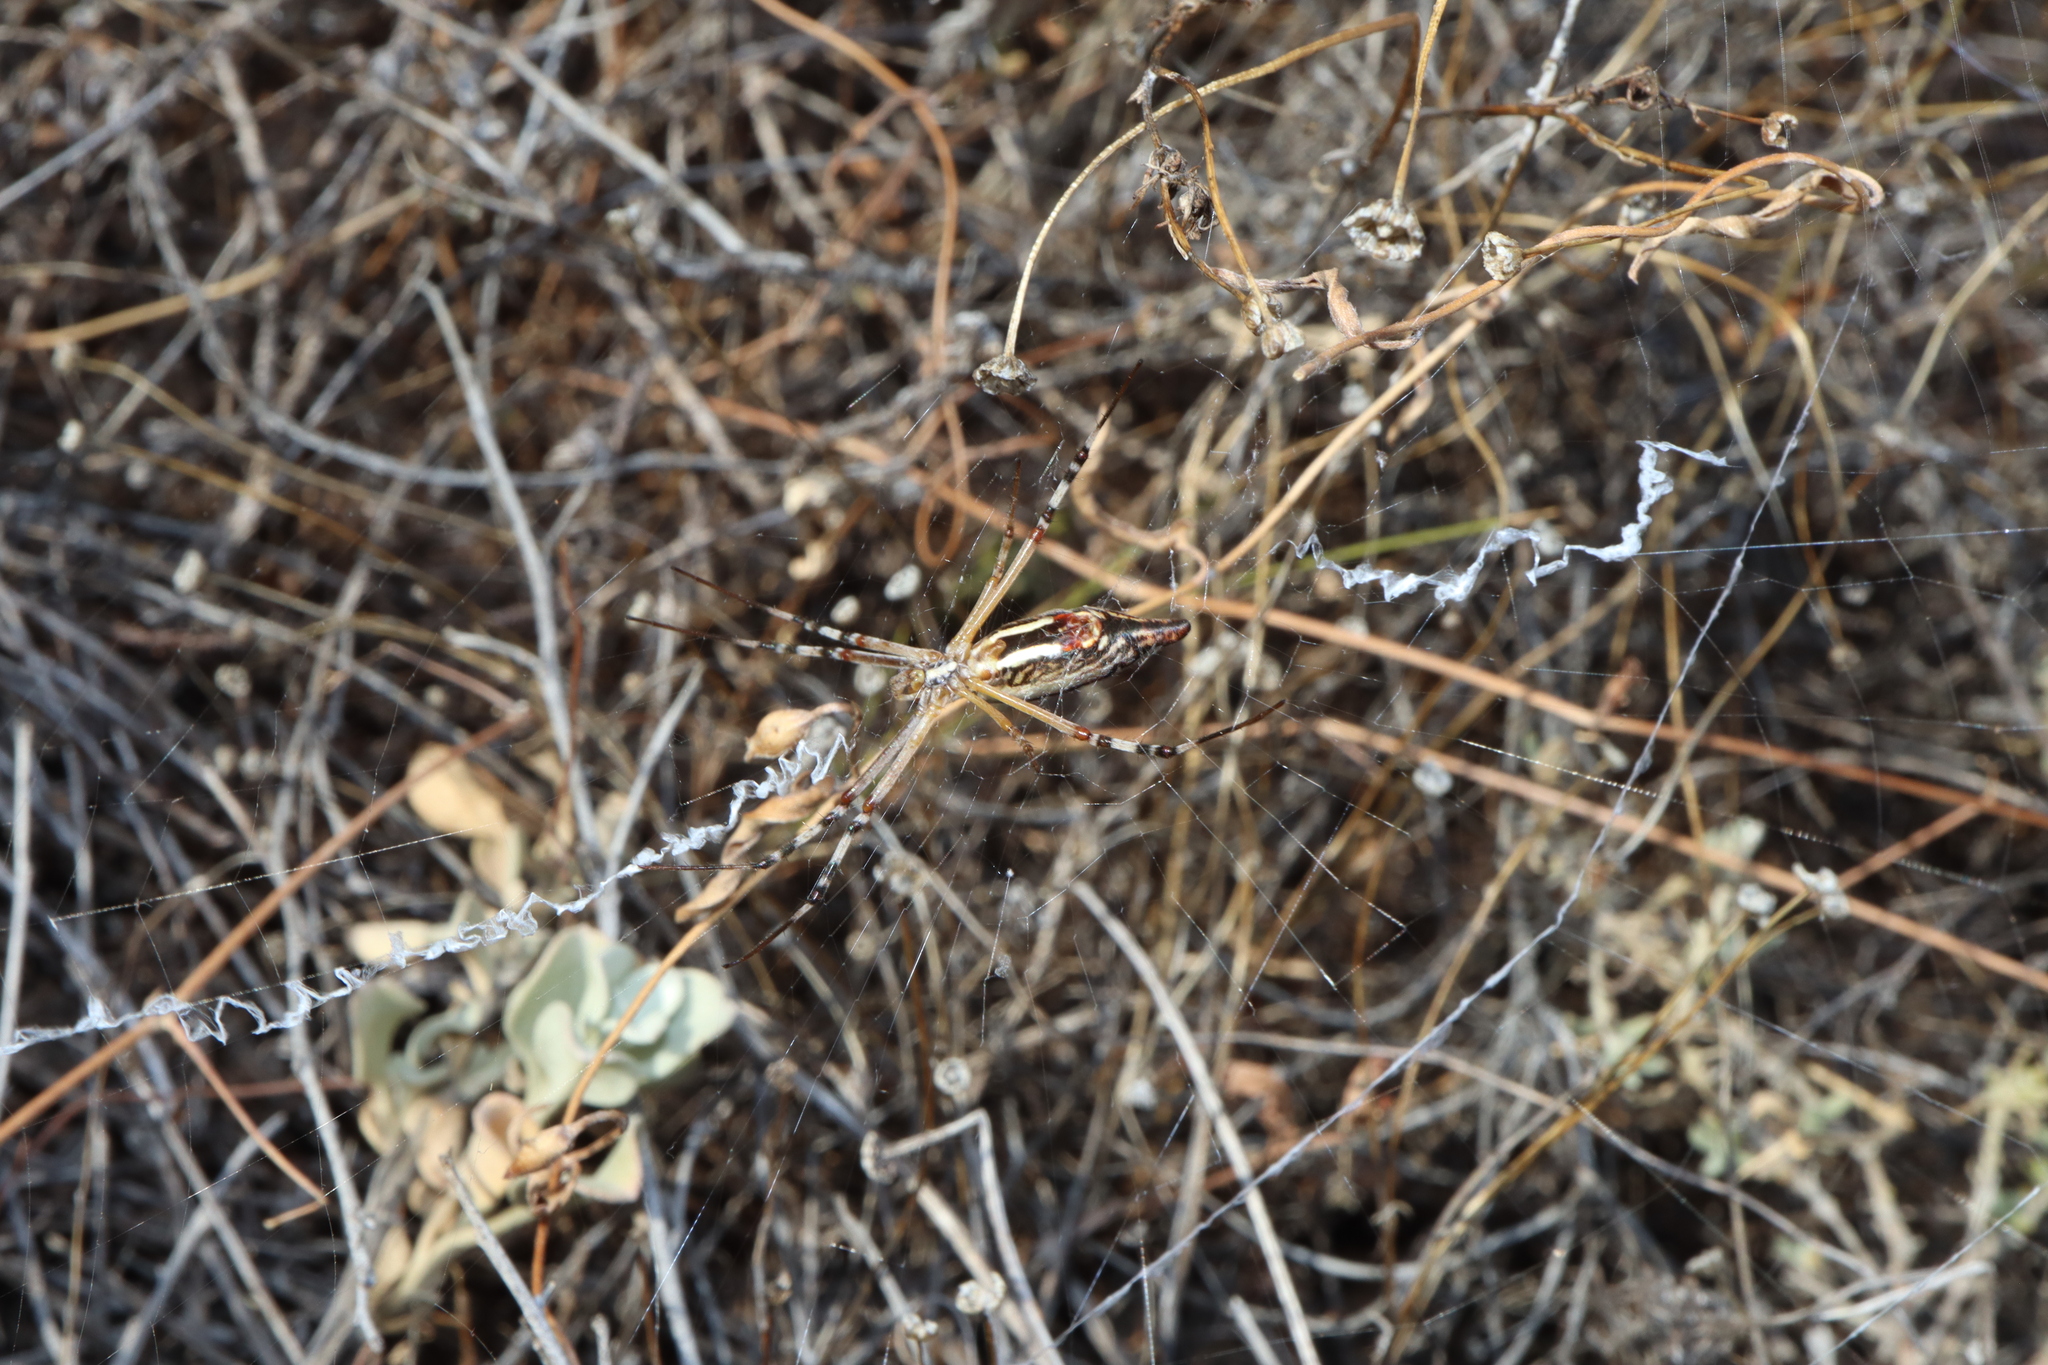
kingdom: Animalia
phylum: Arthropoda
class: Arachnida
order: Araneae
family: Araneidae
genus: Argiope
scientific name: Argiope protensa
